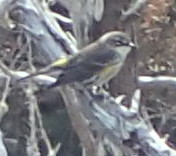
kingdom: Animalia
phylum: Chordata
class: Aves
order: Passeriformes
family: Parulidae
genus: Setophaga
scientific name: Setophaga coronata
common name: Myrtle warbler
